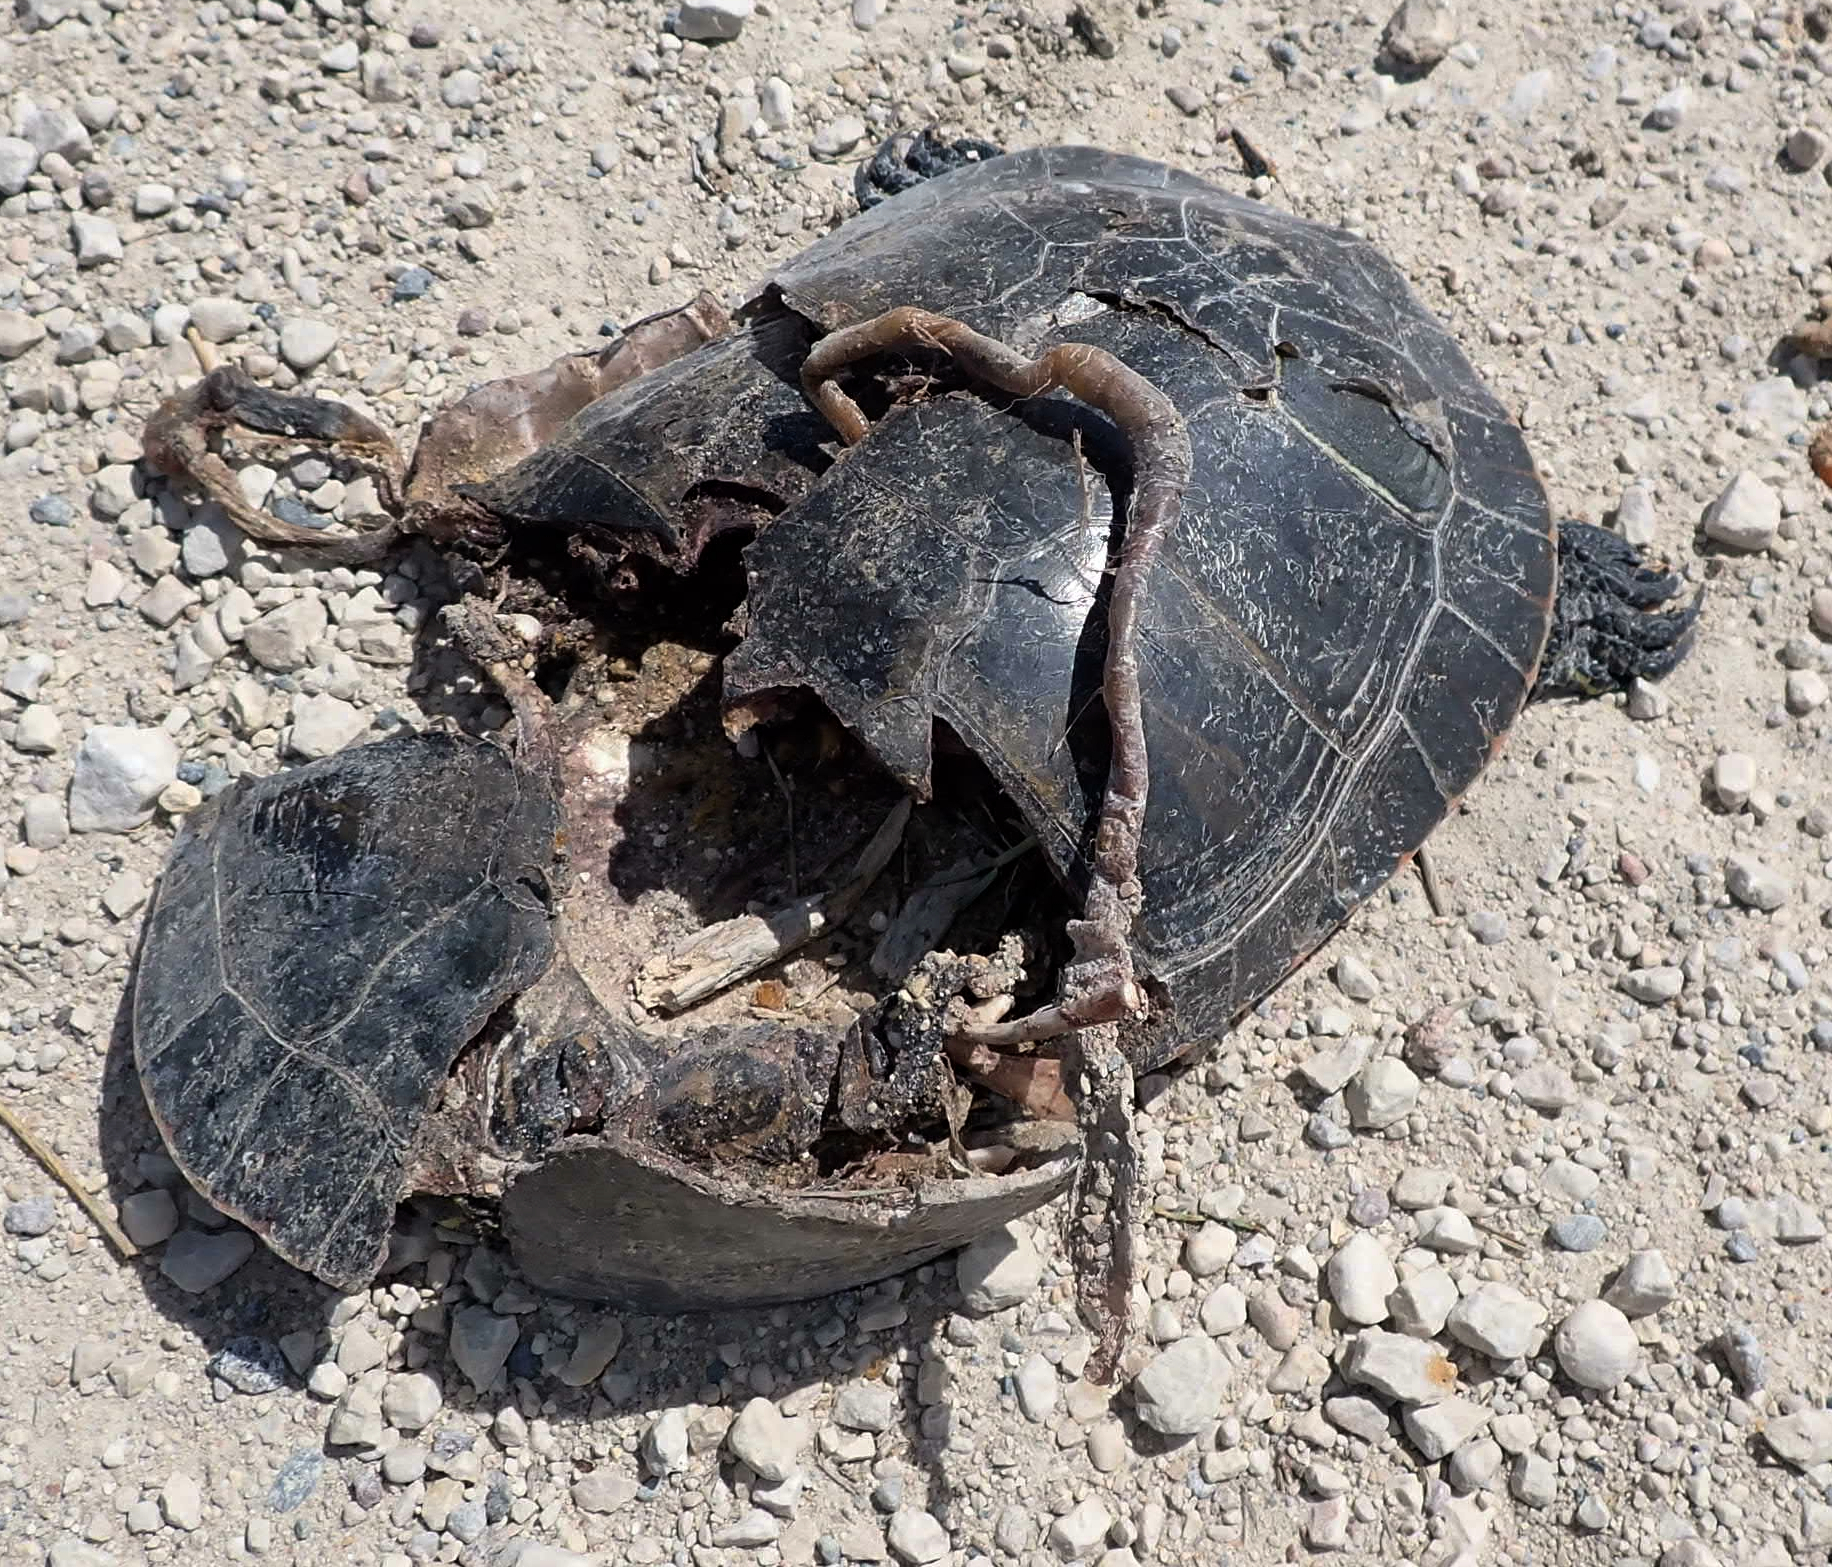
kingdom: Animalia
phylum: Chordata
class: Testudines
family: Emydidae
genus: Chrysemys
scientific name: Chrysemys picta
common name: Painted turtle
